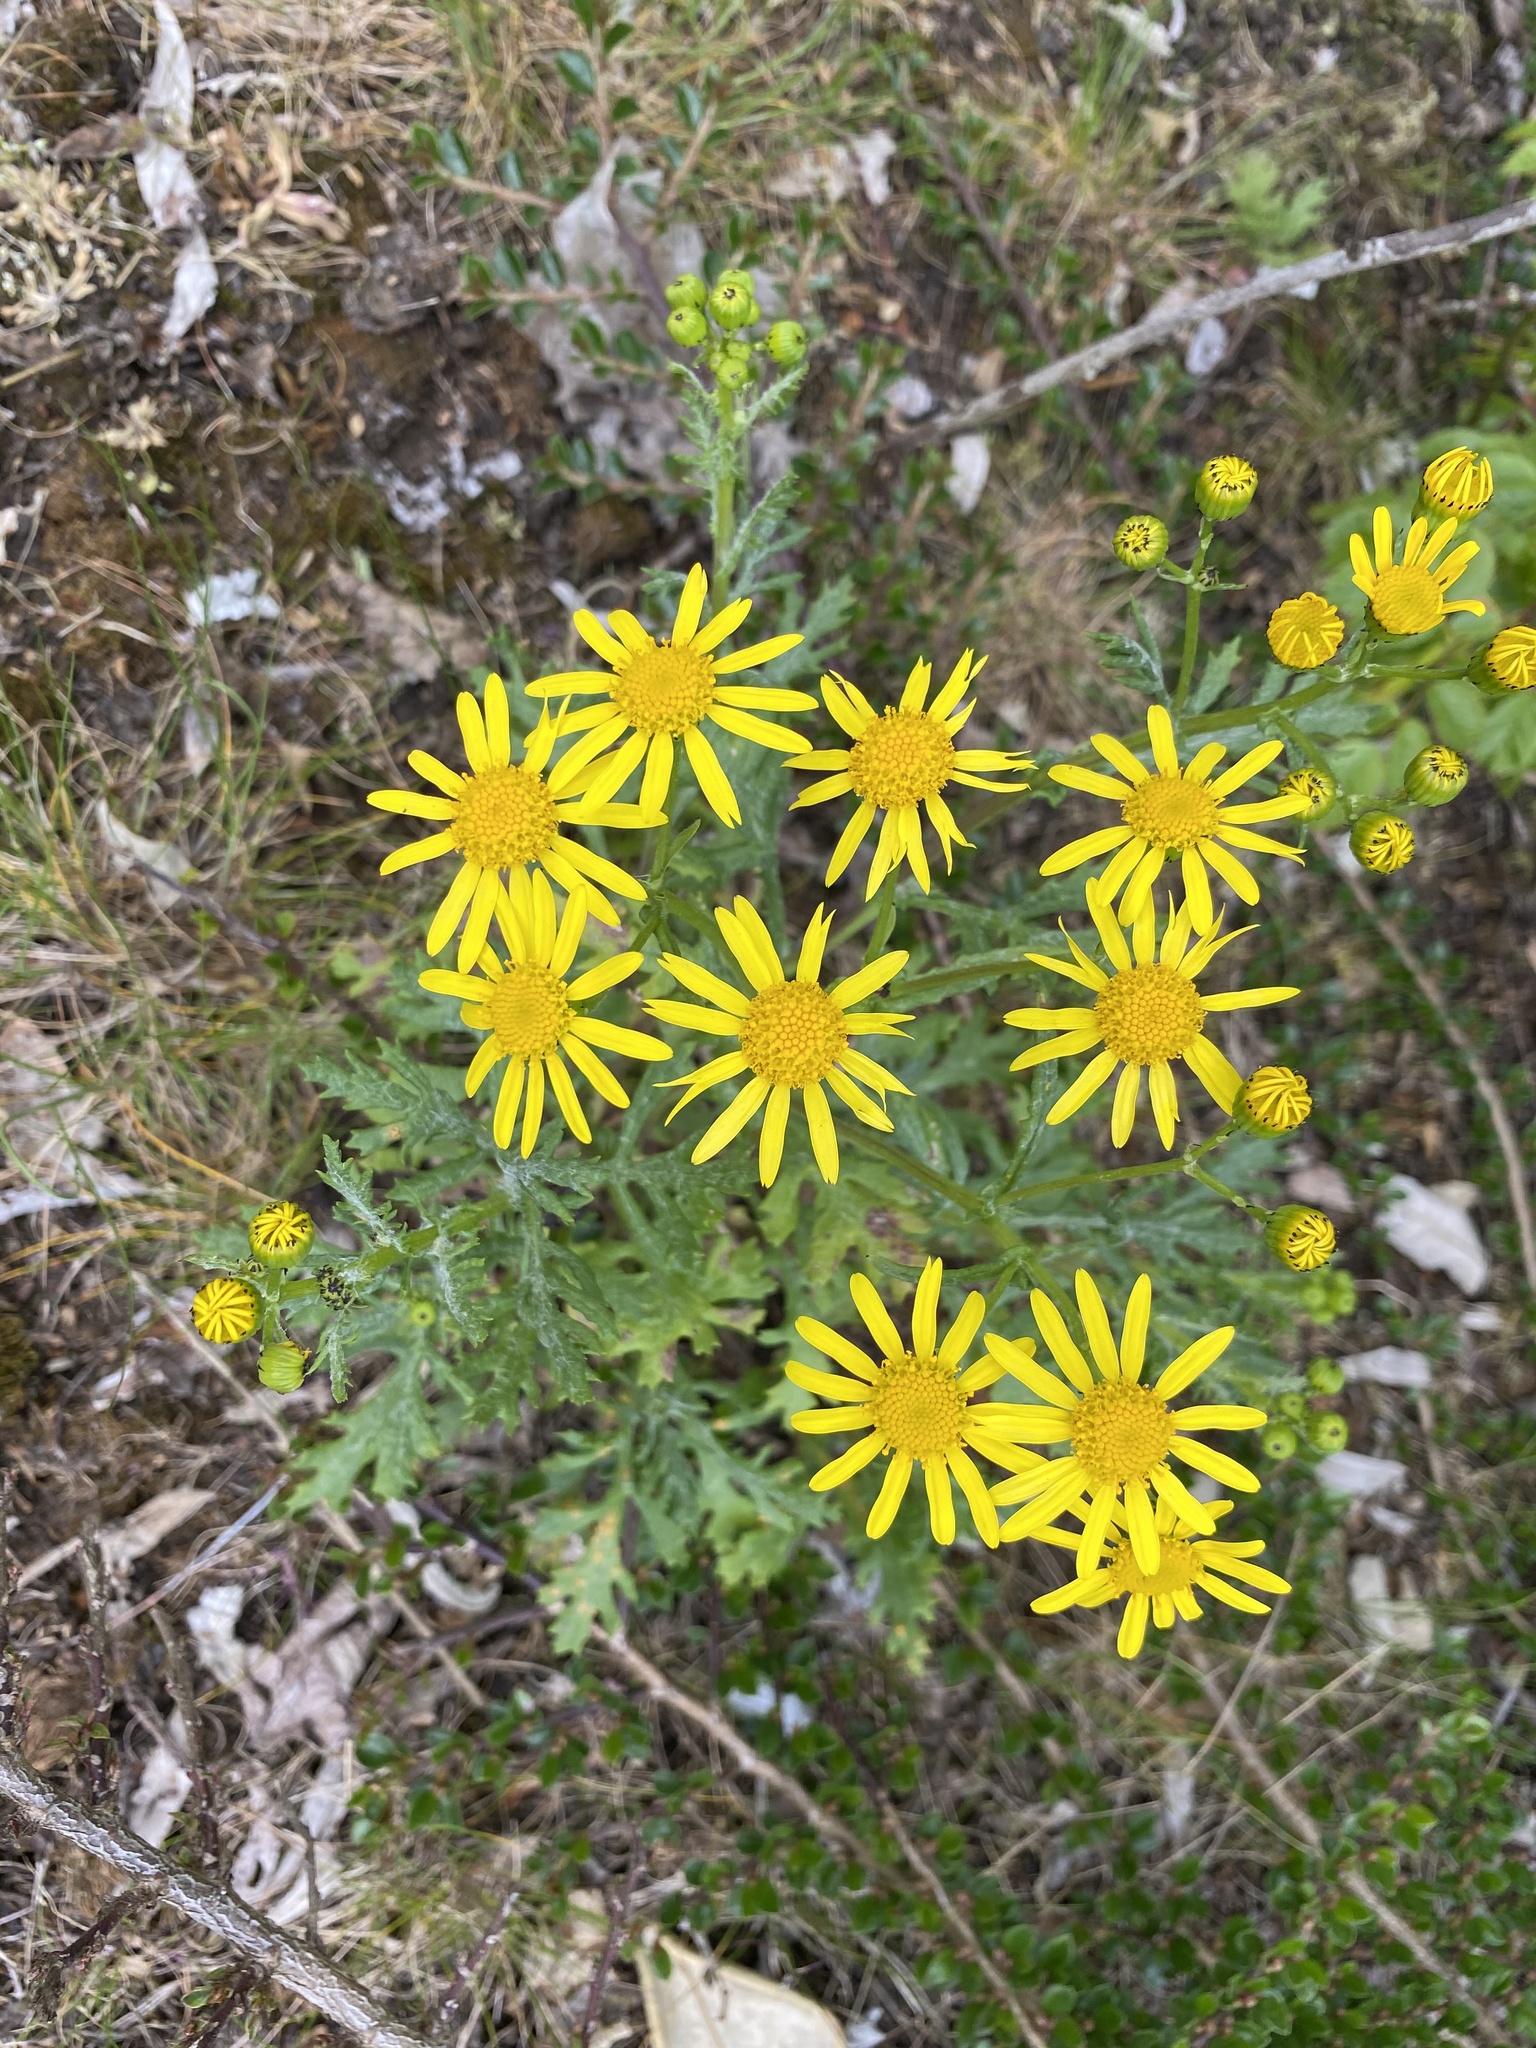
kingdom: Plantae
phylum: Tracheophyta
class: Magnoliopsida
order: Asterales
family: Asteraceae
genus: Jacobaea
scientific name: Jacobaea vulgaris
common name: Stinking willie
